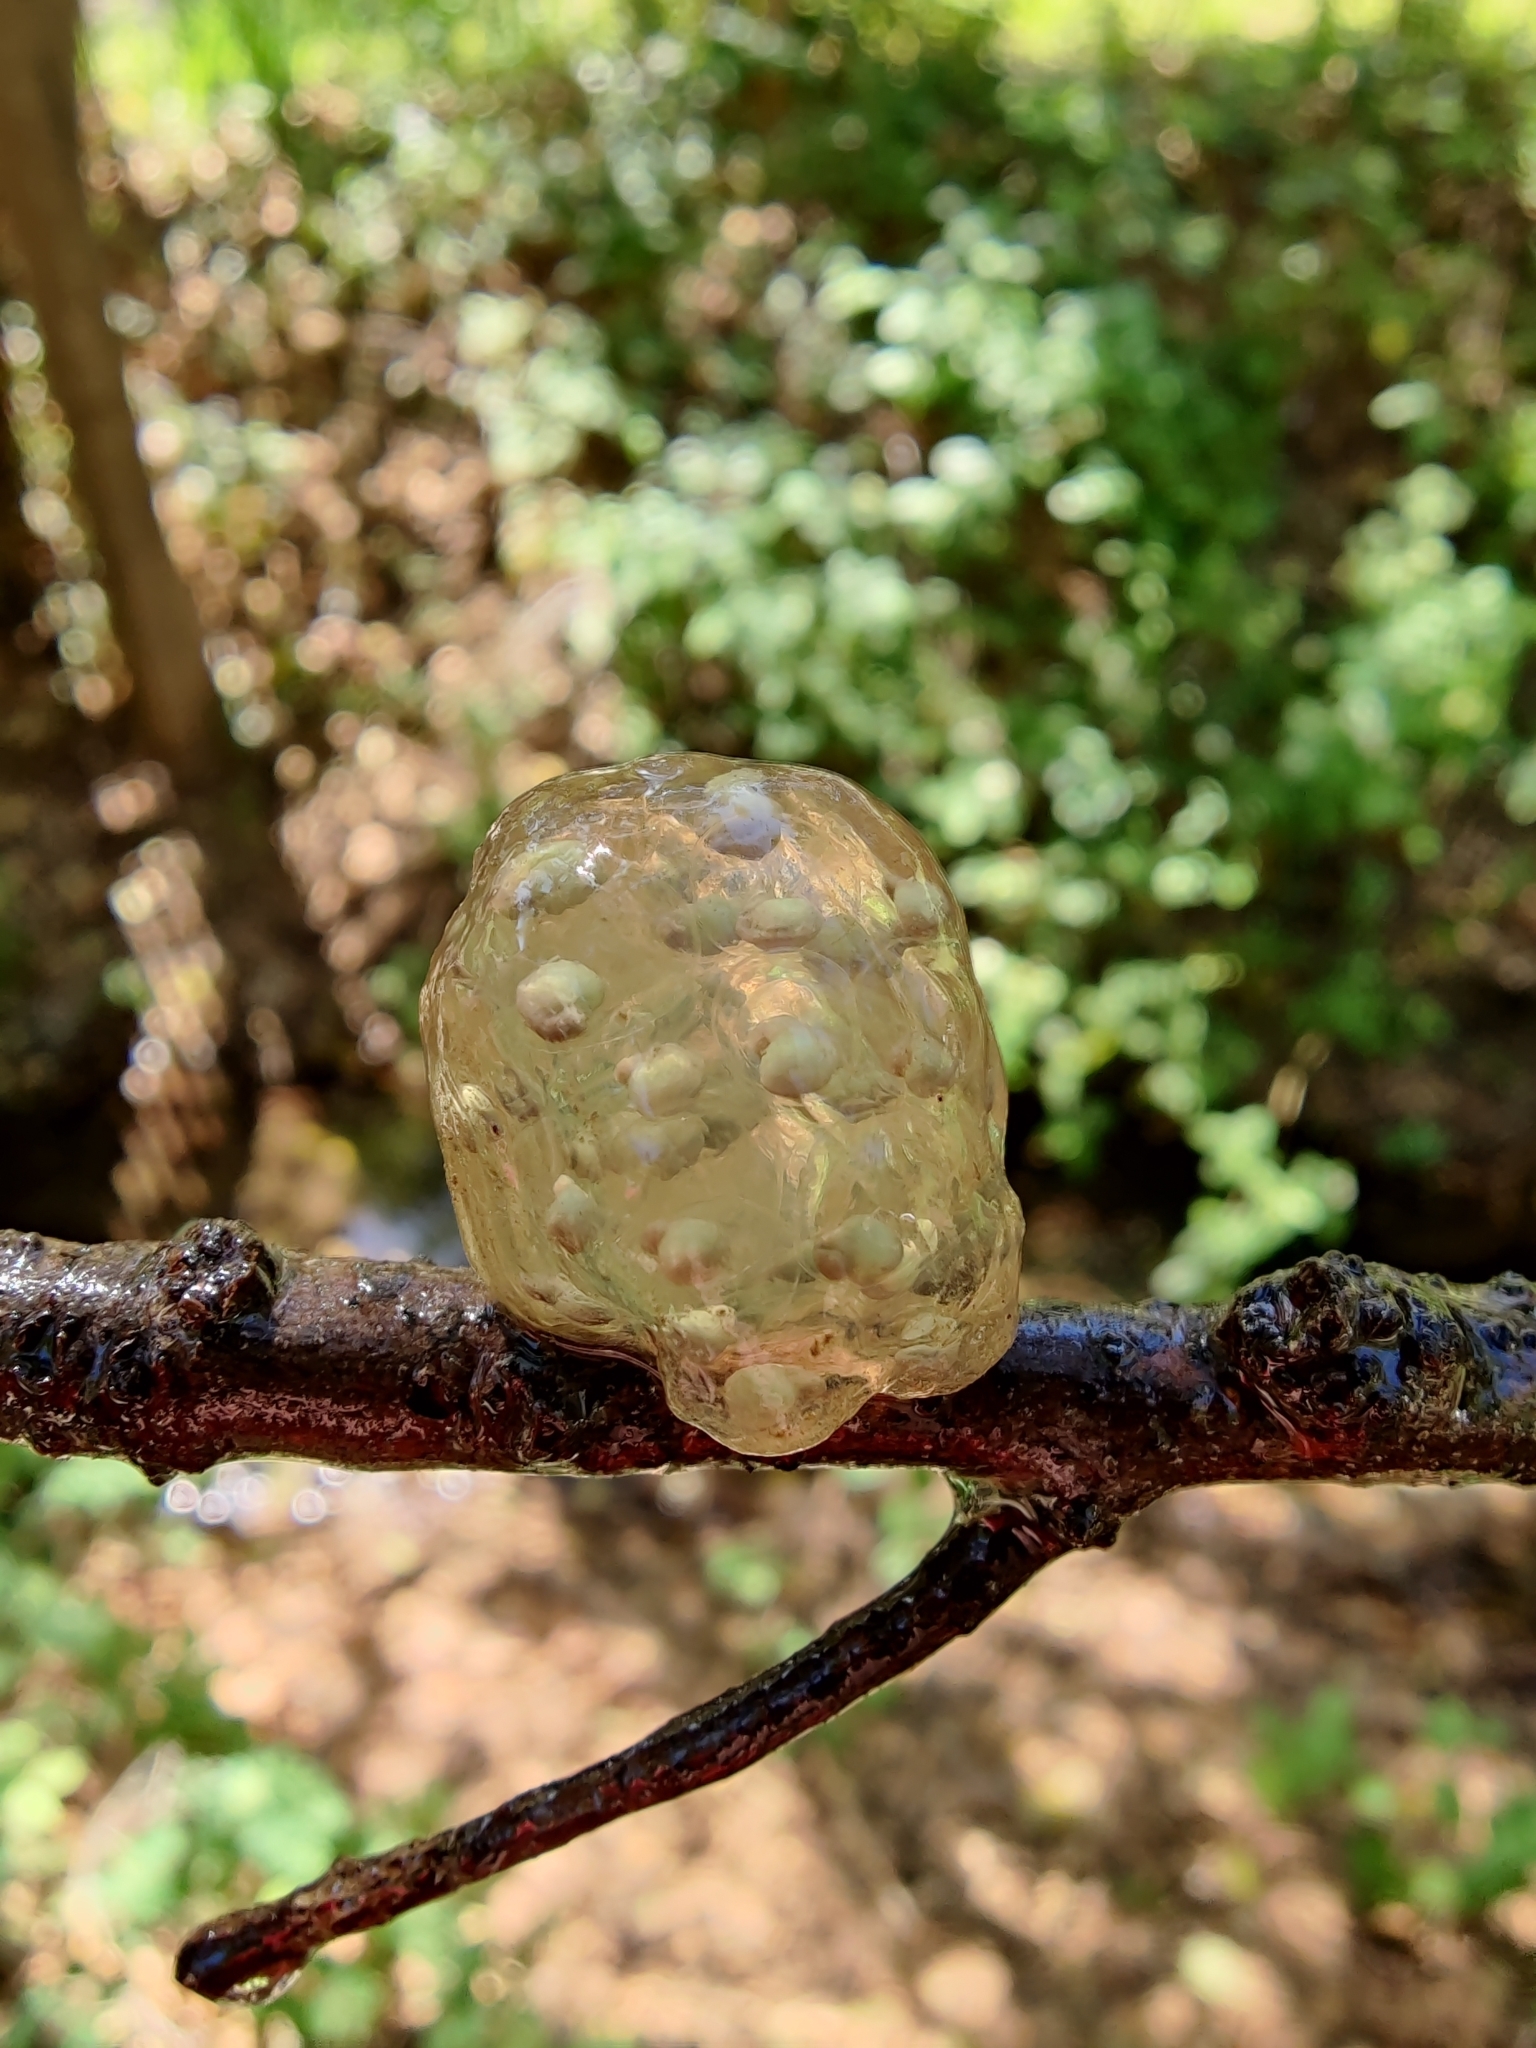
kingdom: Animalia
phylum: Chordata
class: Amphibia
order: Caudata
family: Salamandridae
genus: Taricha
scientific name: Taricha torosa
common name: California newt
